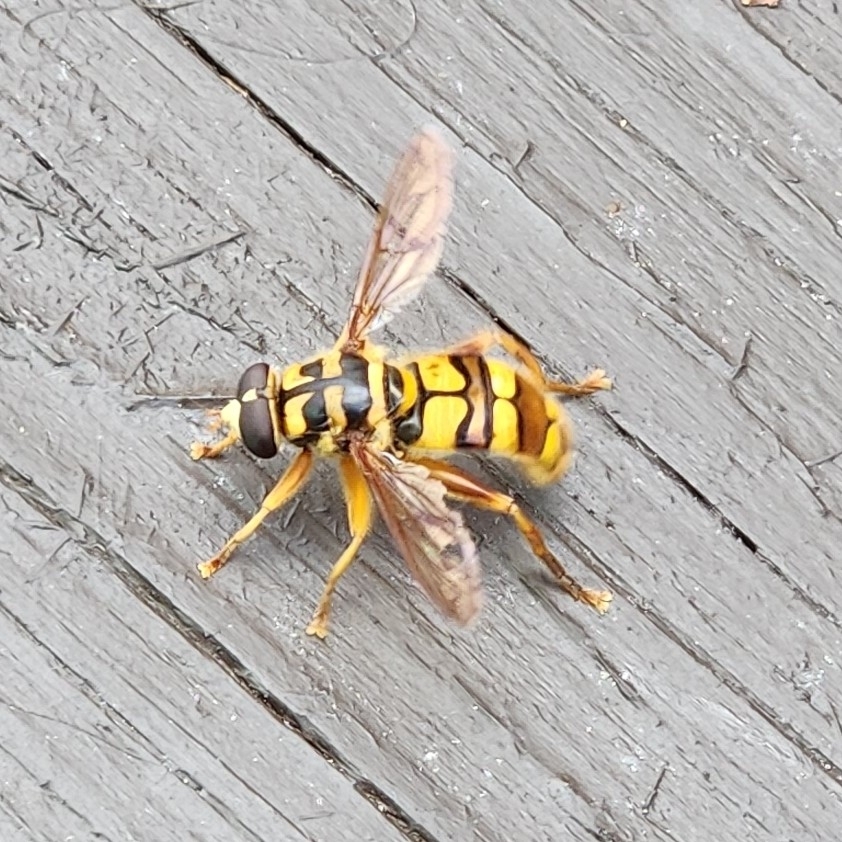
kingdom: Animalia
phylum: Arthropoda
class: Insecta
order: Diptera
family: Syrphidae
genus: Milesia
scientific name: Milesia virginiensis
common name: Virginia giant
